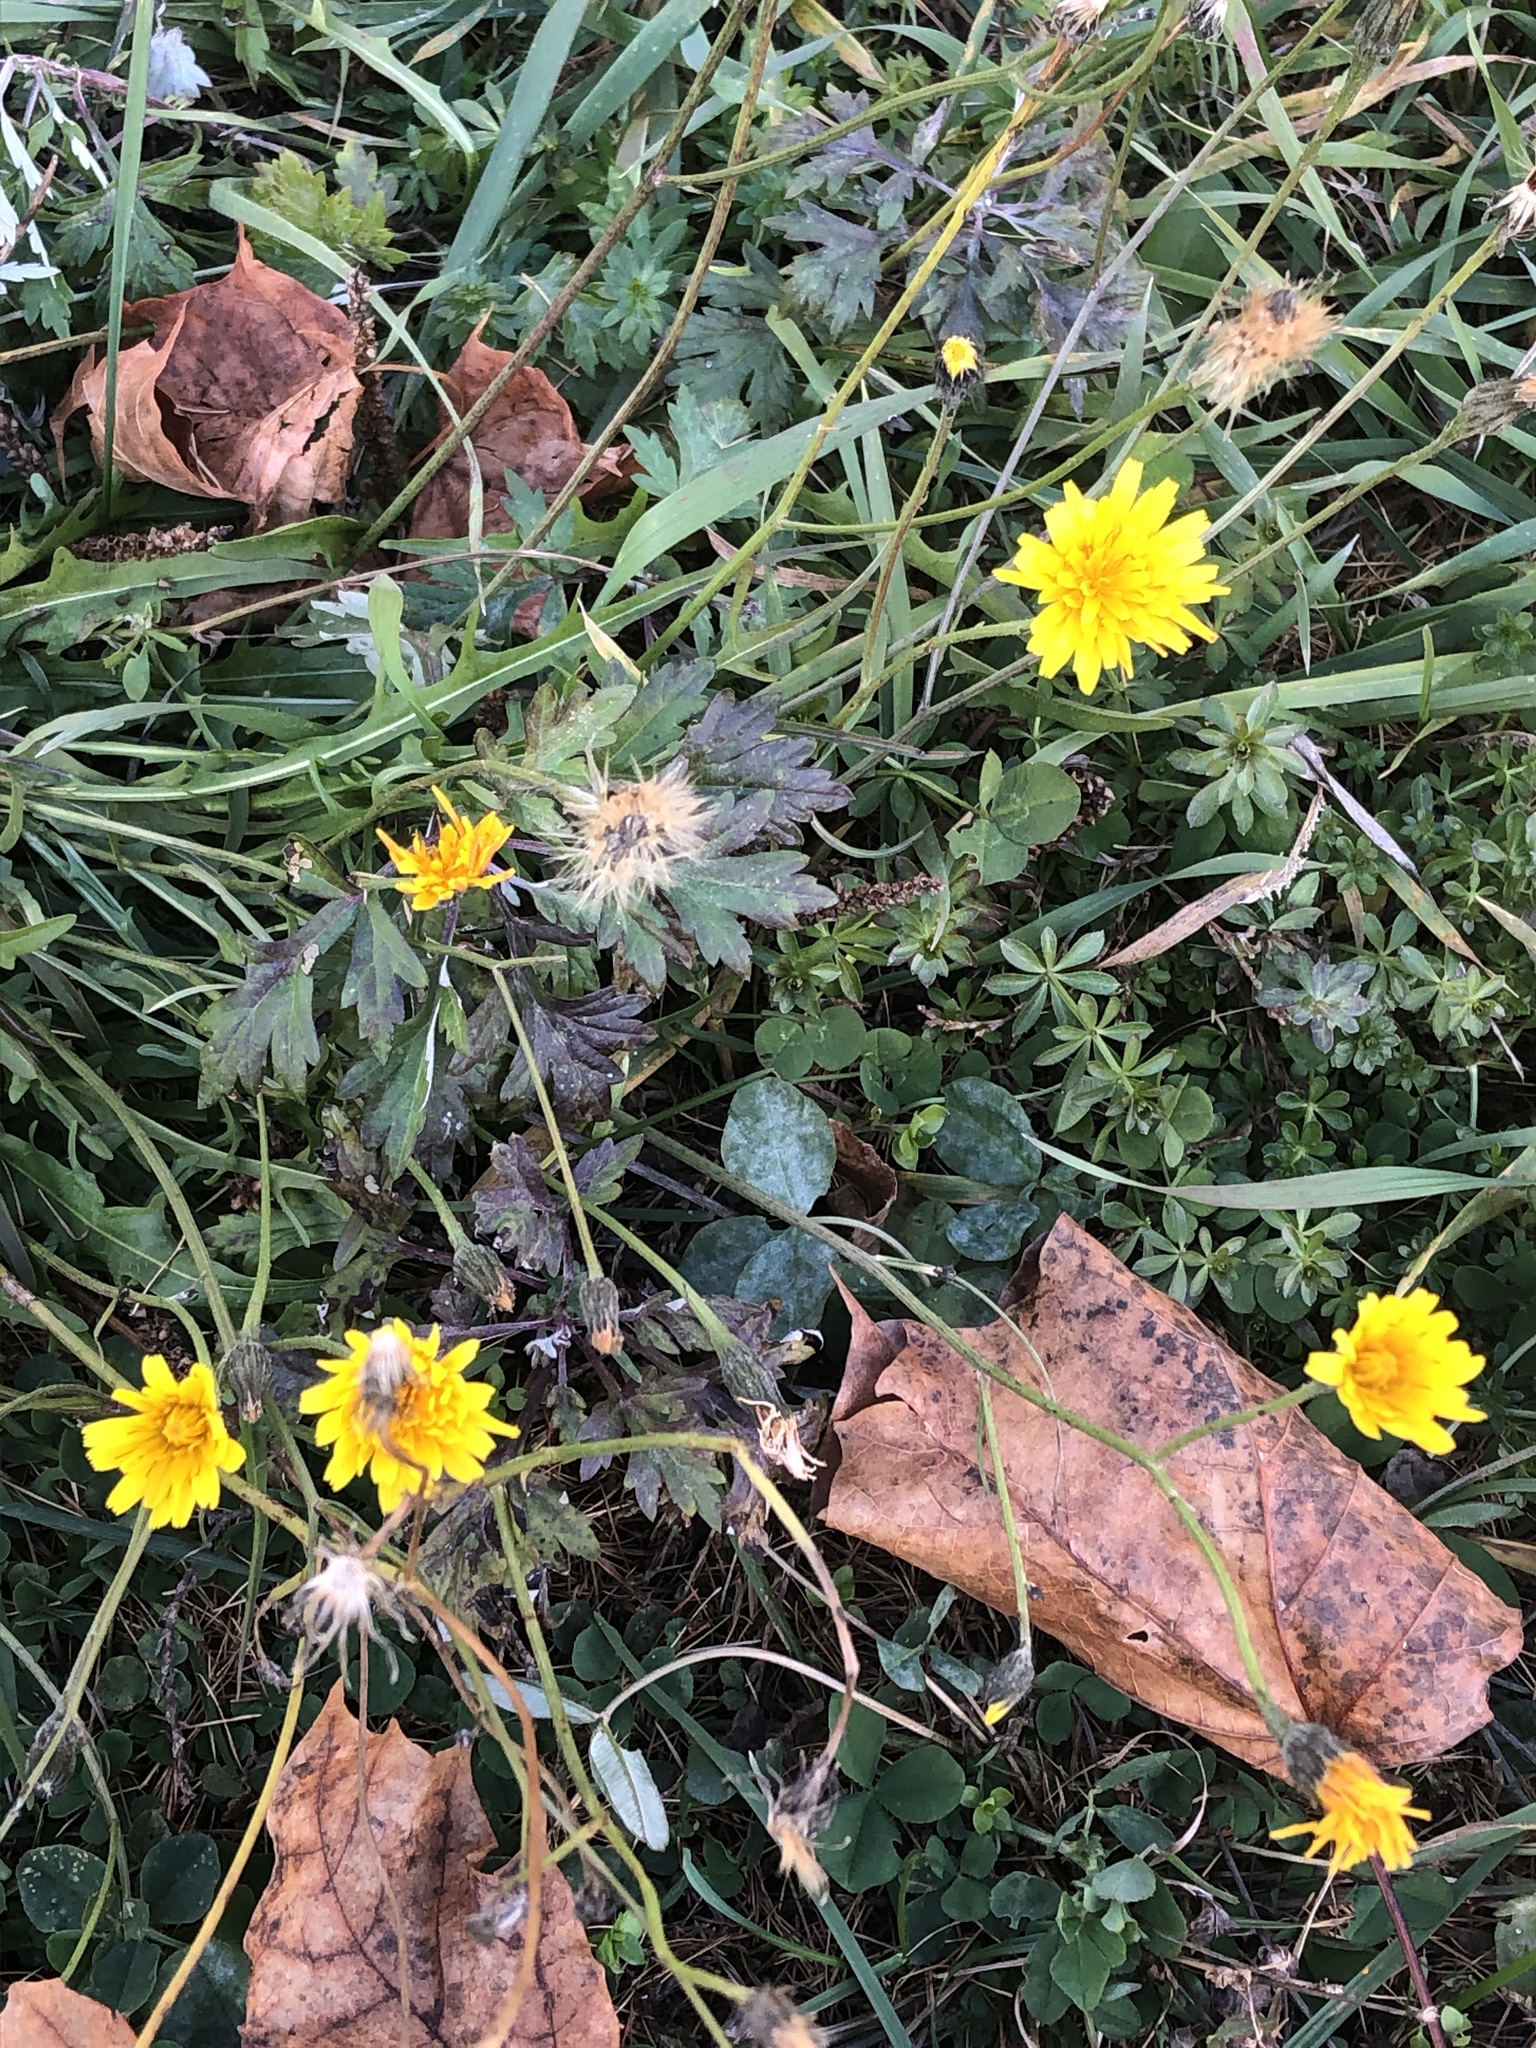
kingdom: Plantae
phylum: Tracheophyta
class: Magnoliopsida
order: Asterales
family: Asteraceae
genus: Scorzoneroides
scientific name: Scorzoneroides autumnalis
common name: Autumn hawkbit
